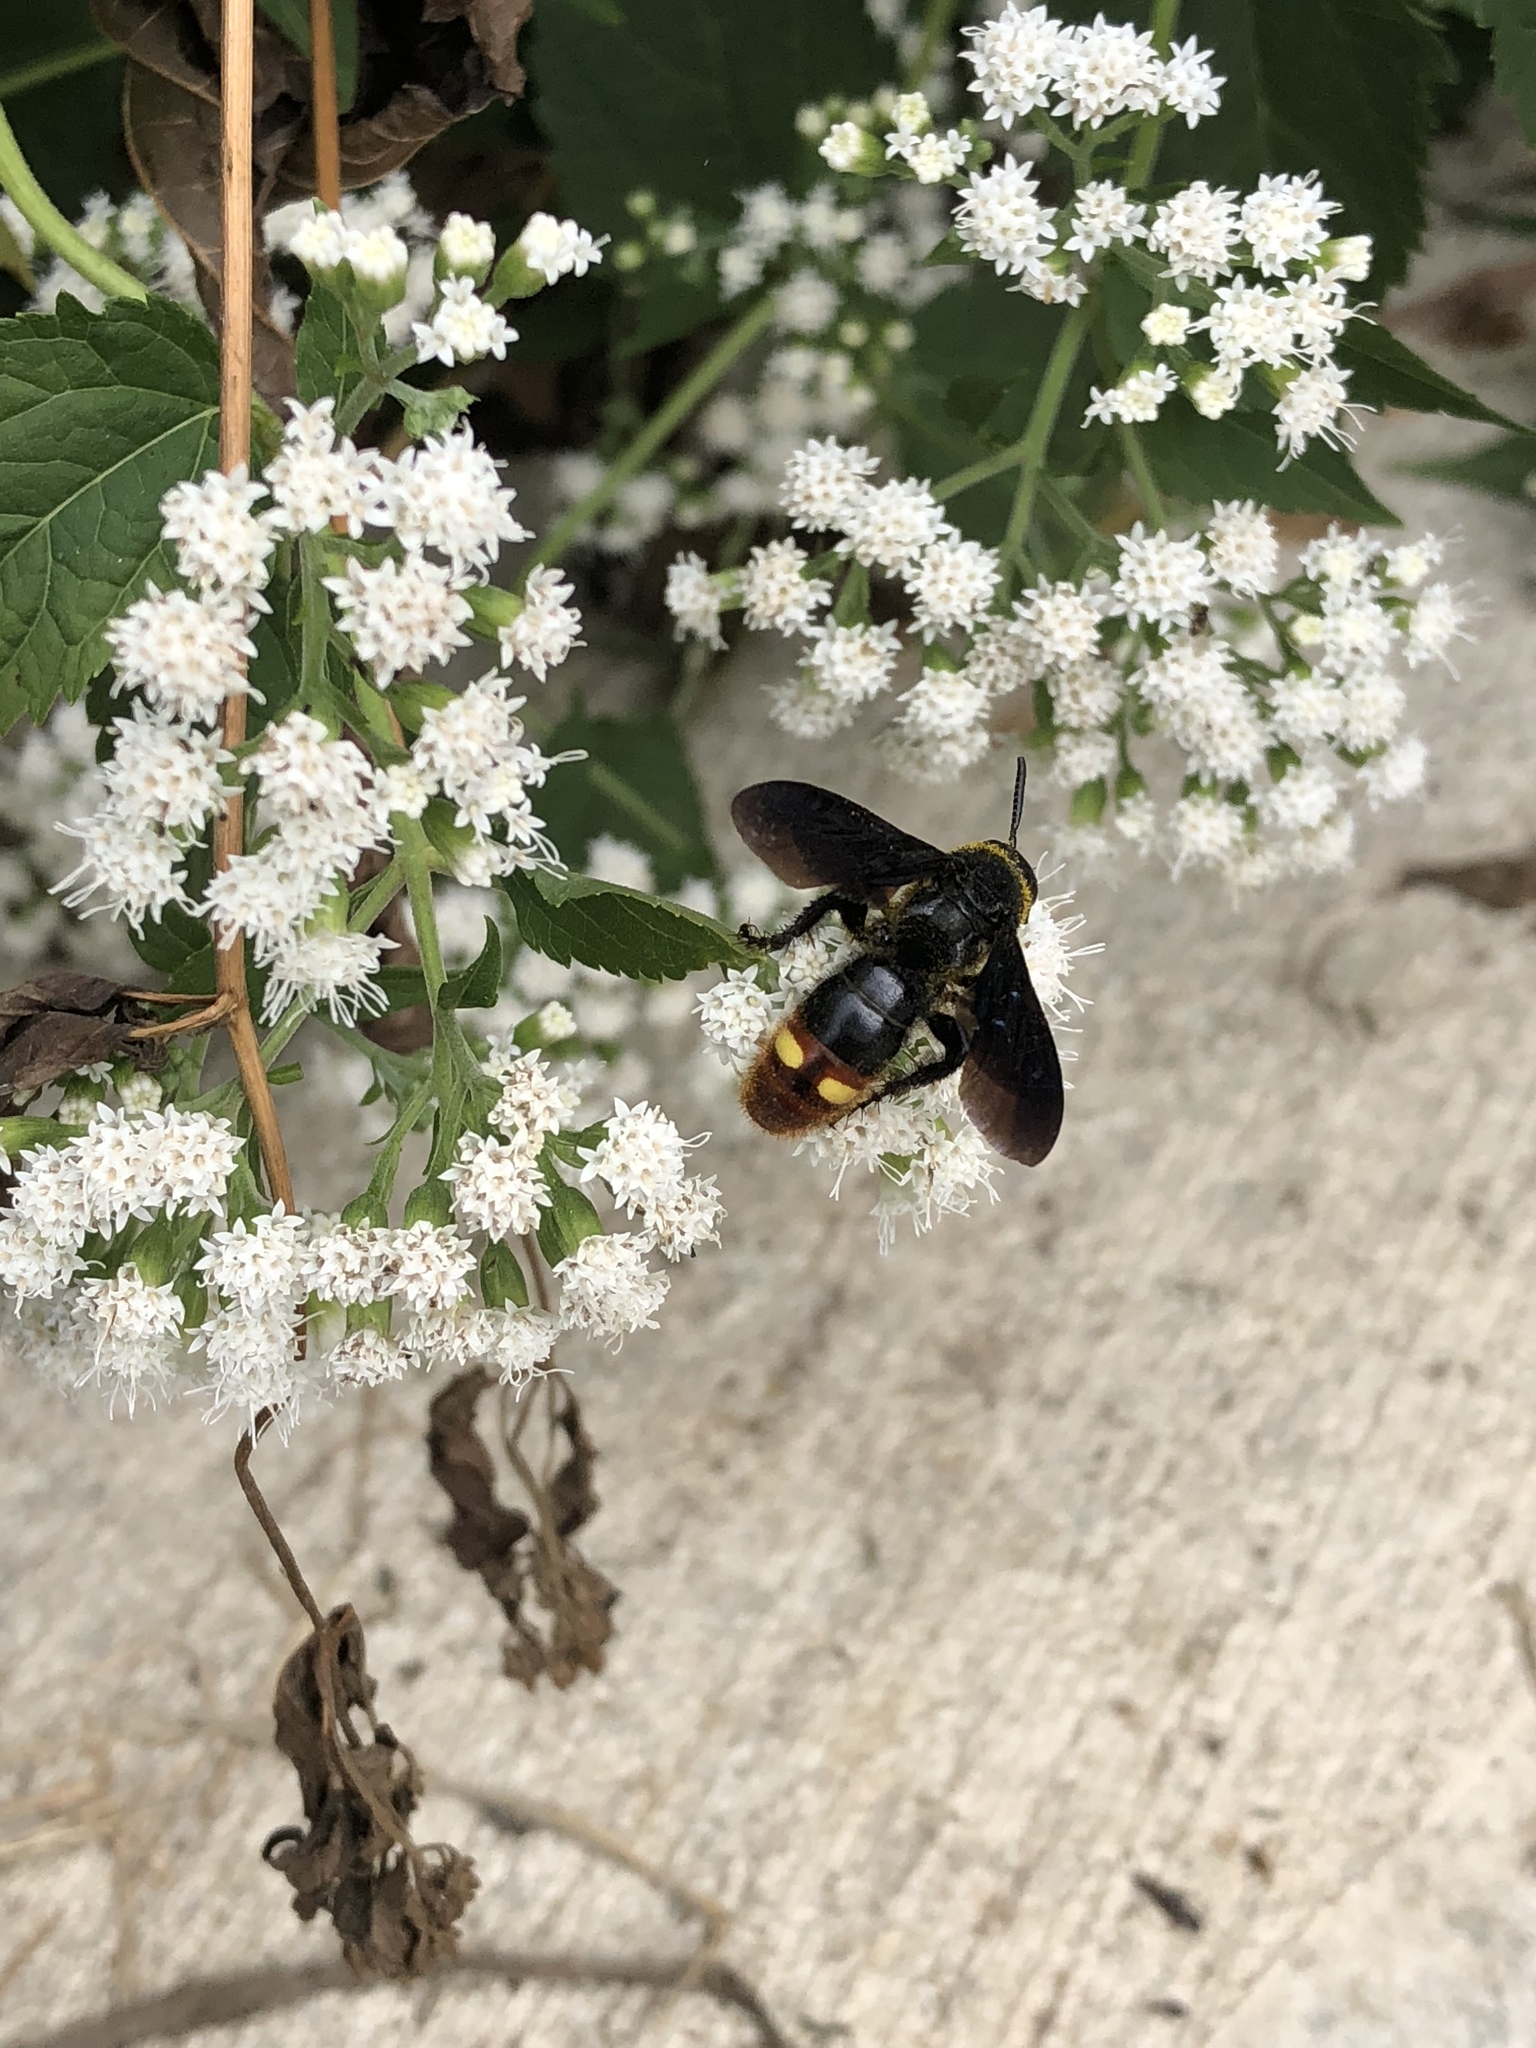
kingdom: Animalia
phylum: Arthropoda
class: Insecta
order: Hymenoptera
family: Scoliidae
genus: Scolia
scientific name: Scolia dubia
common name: Blue-winged scoliid wasp
